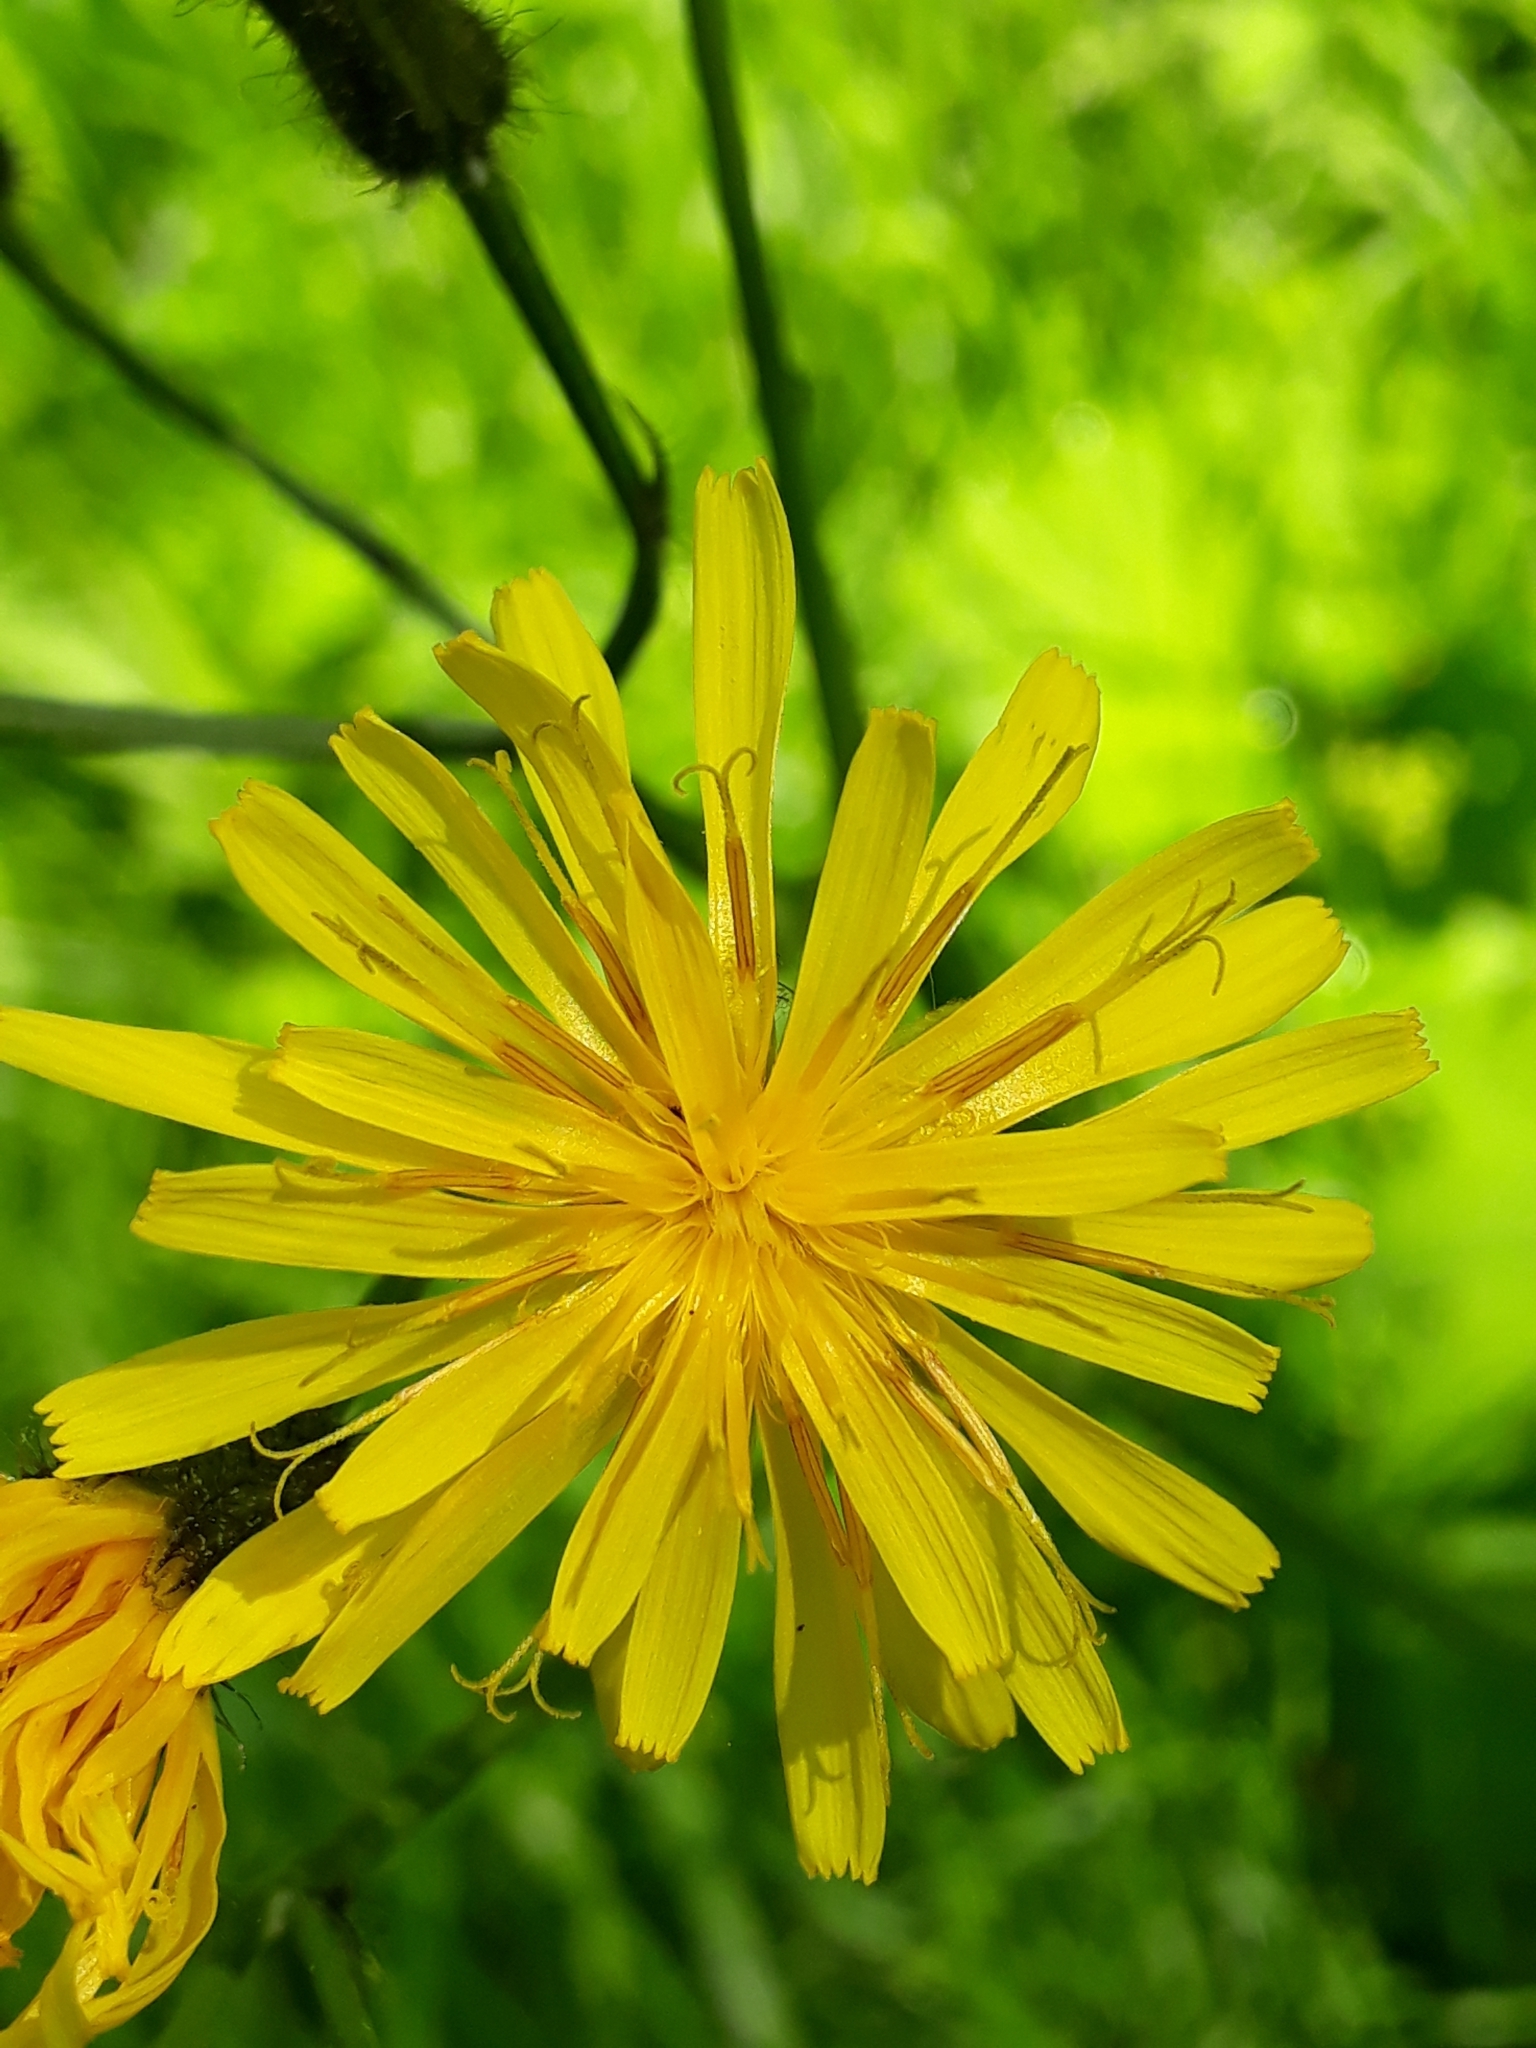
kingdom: Plantae
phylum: Tracheophyta
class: Magnoliopsida
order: Asterales
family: Asteraceae
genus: Crepis
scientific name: Crepis paludosa
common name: Marsh hawk's-beard
